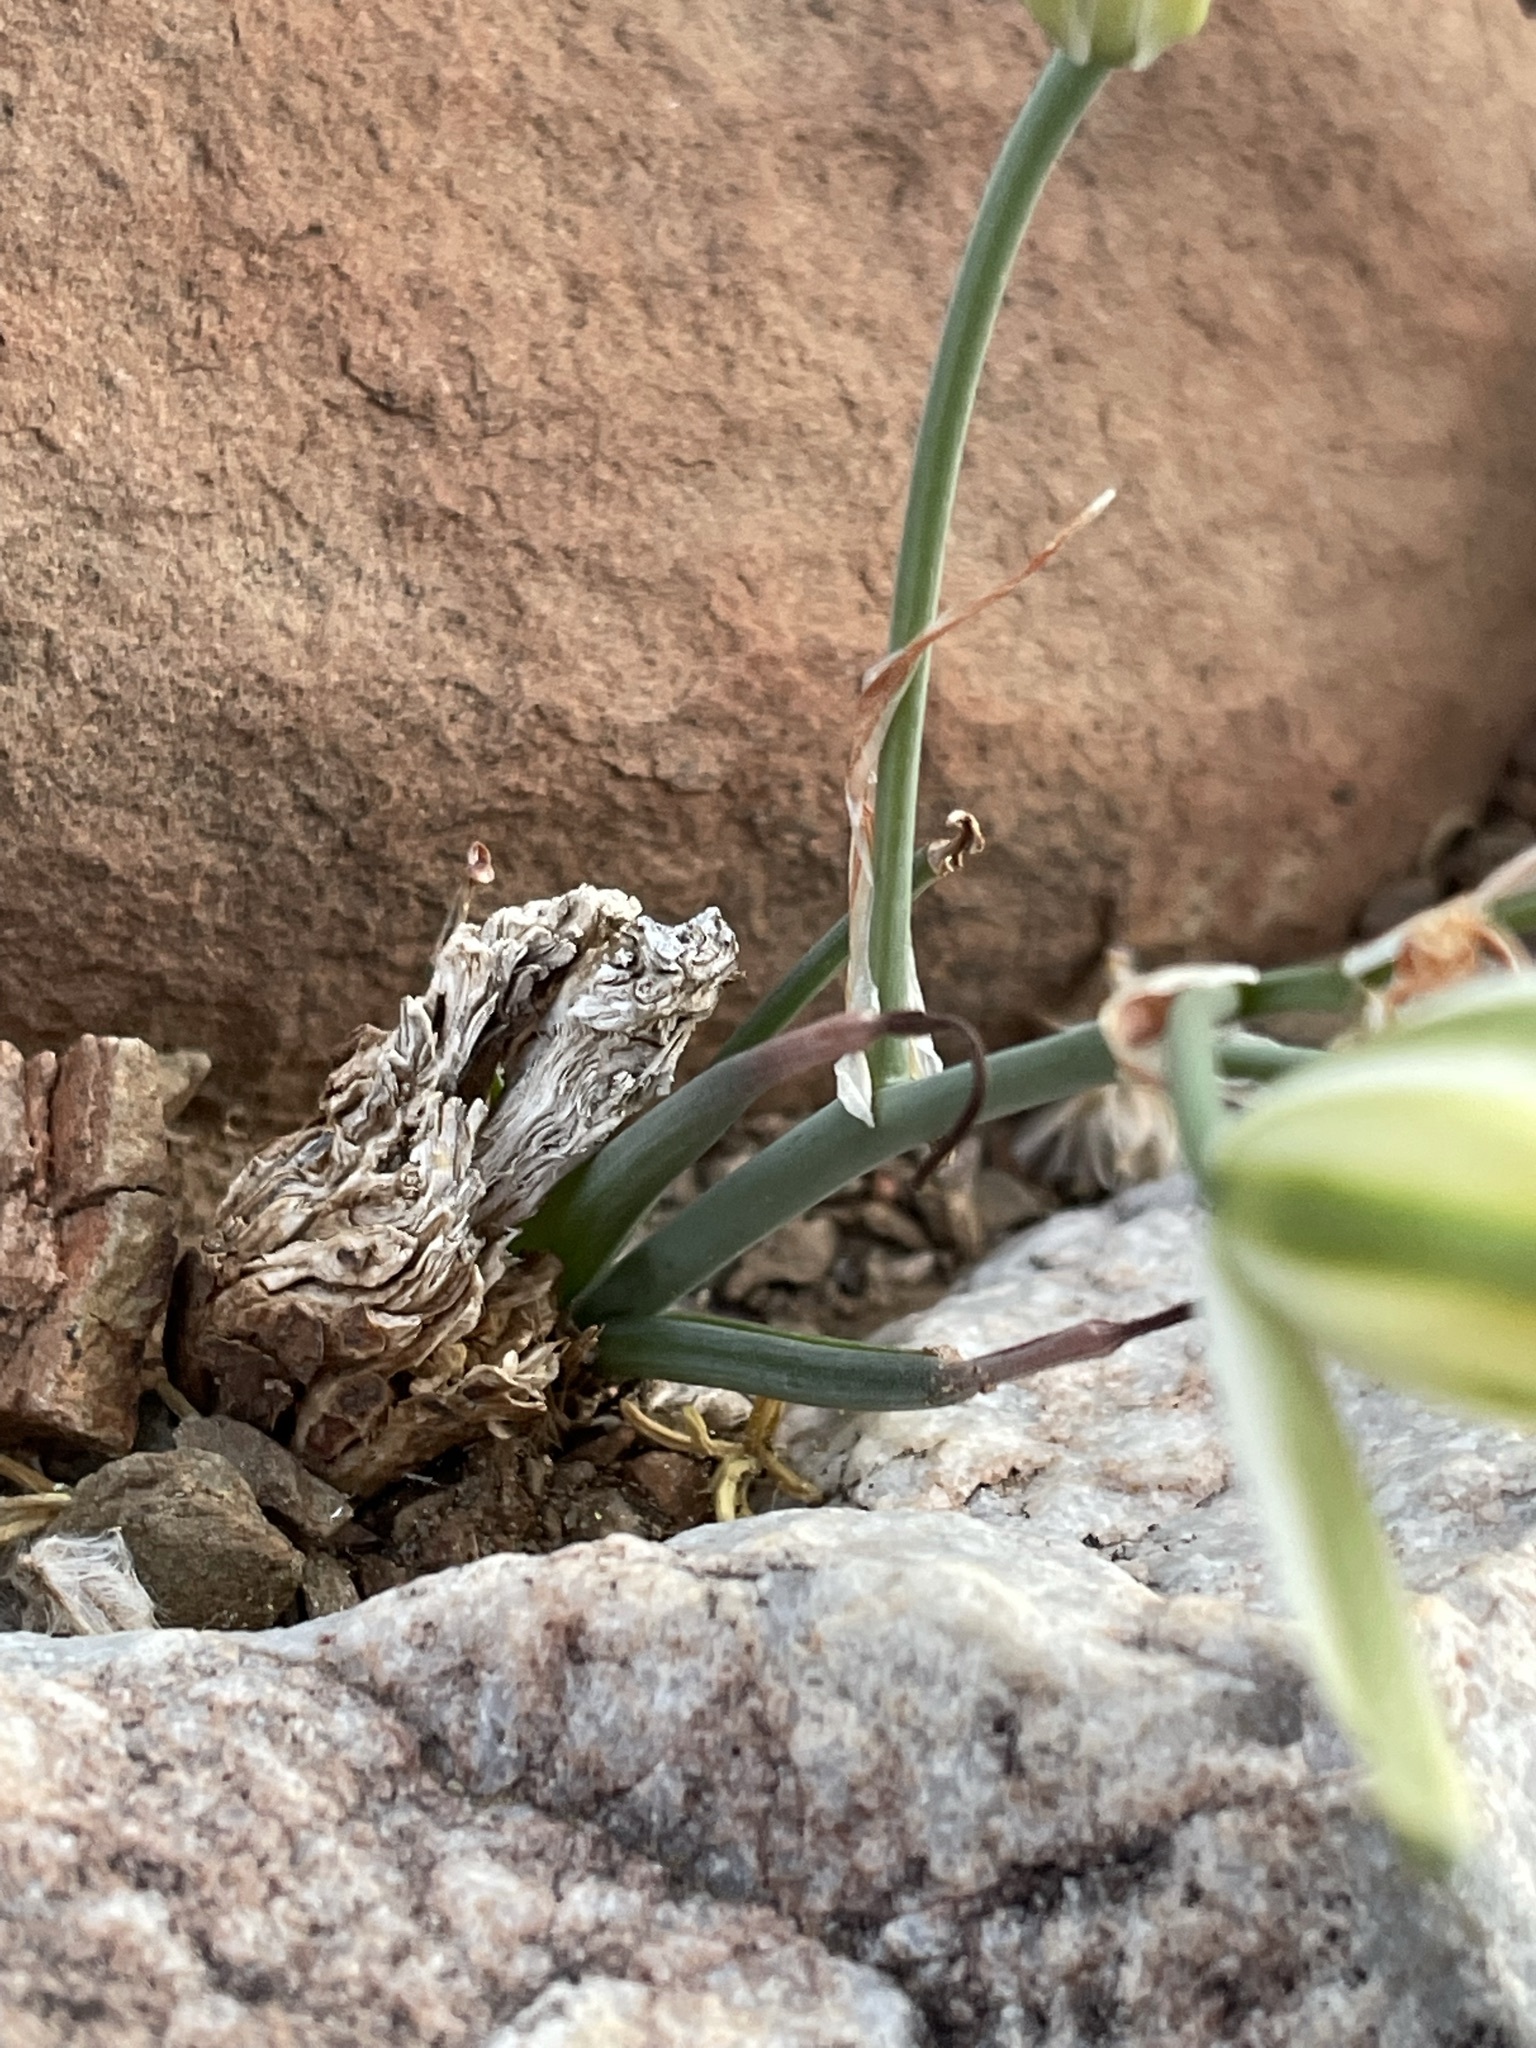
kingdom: Plantae
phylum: Tracheophyta
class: Liliopsida
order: Asparagales
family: Asparagaceae
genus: Albuca
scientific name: Albuca longipes
